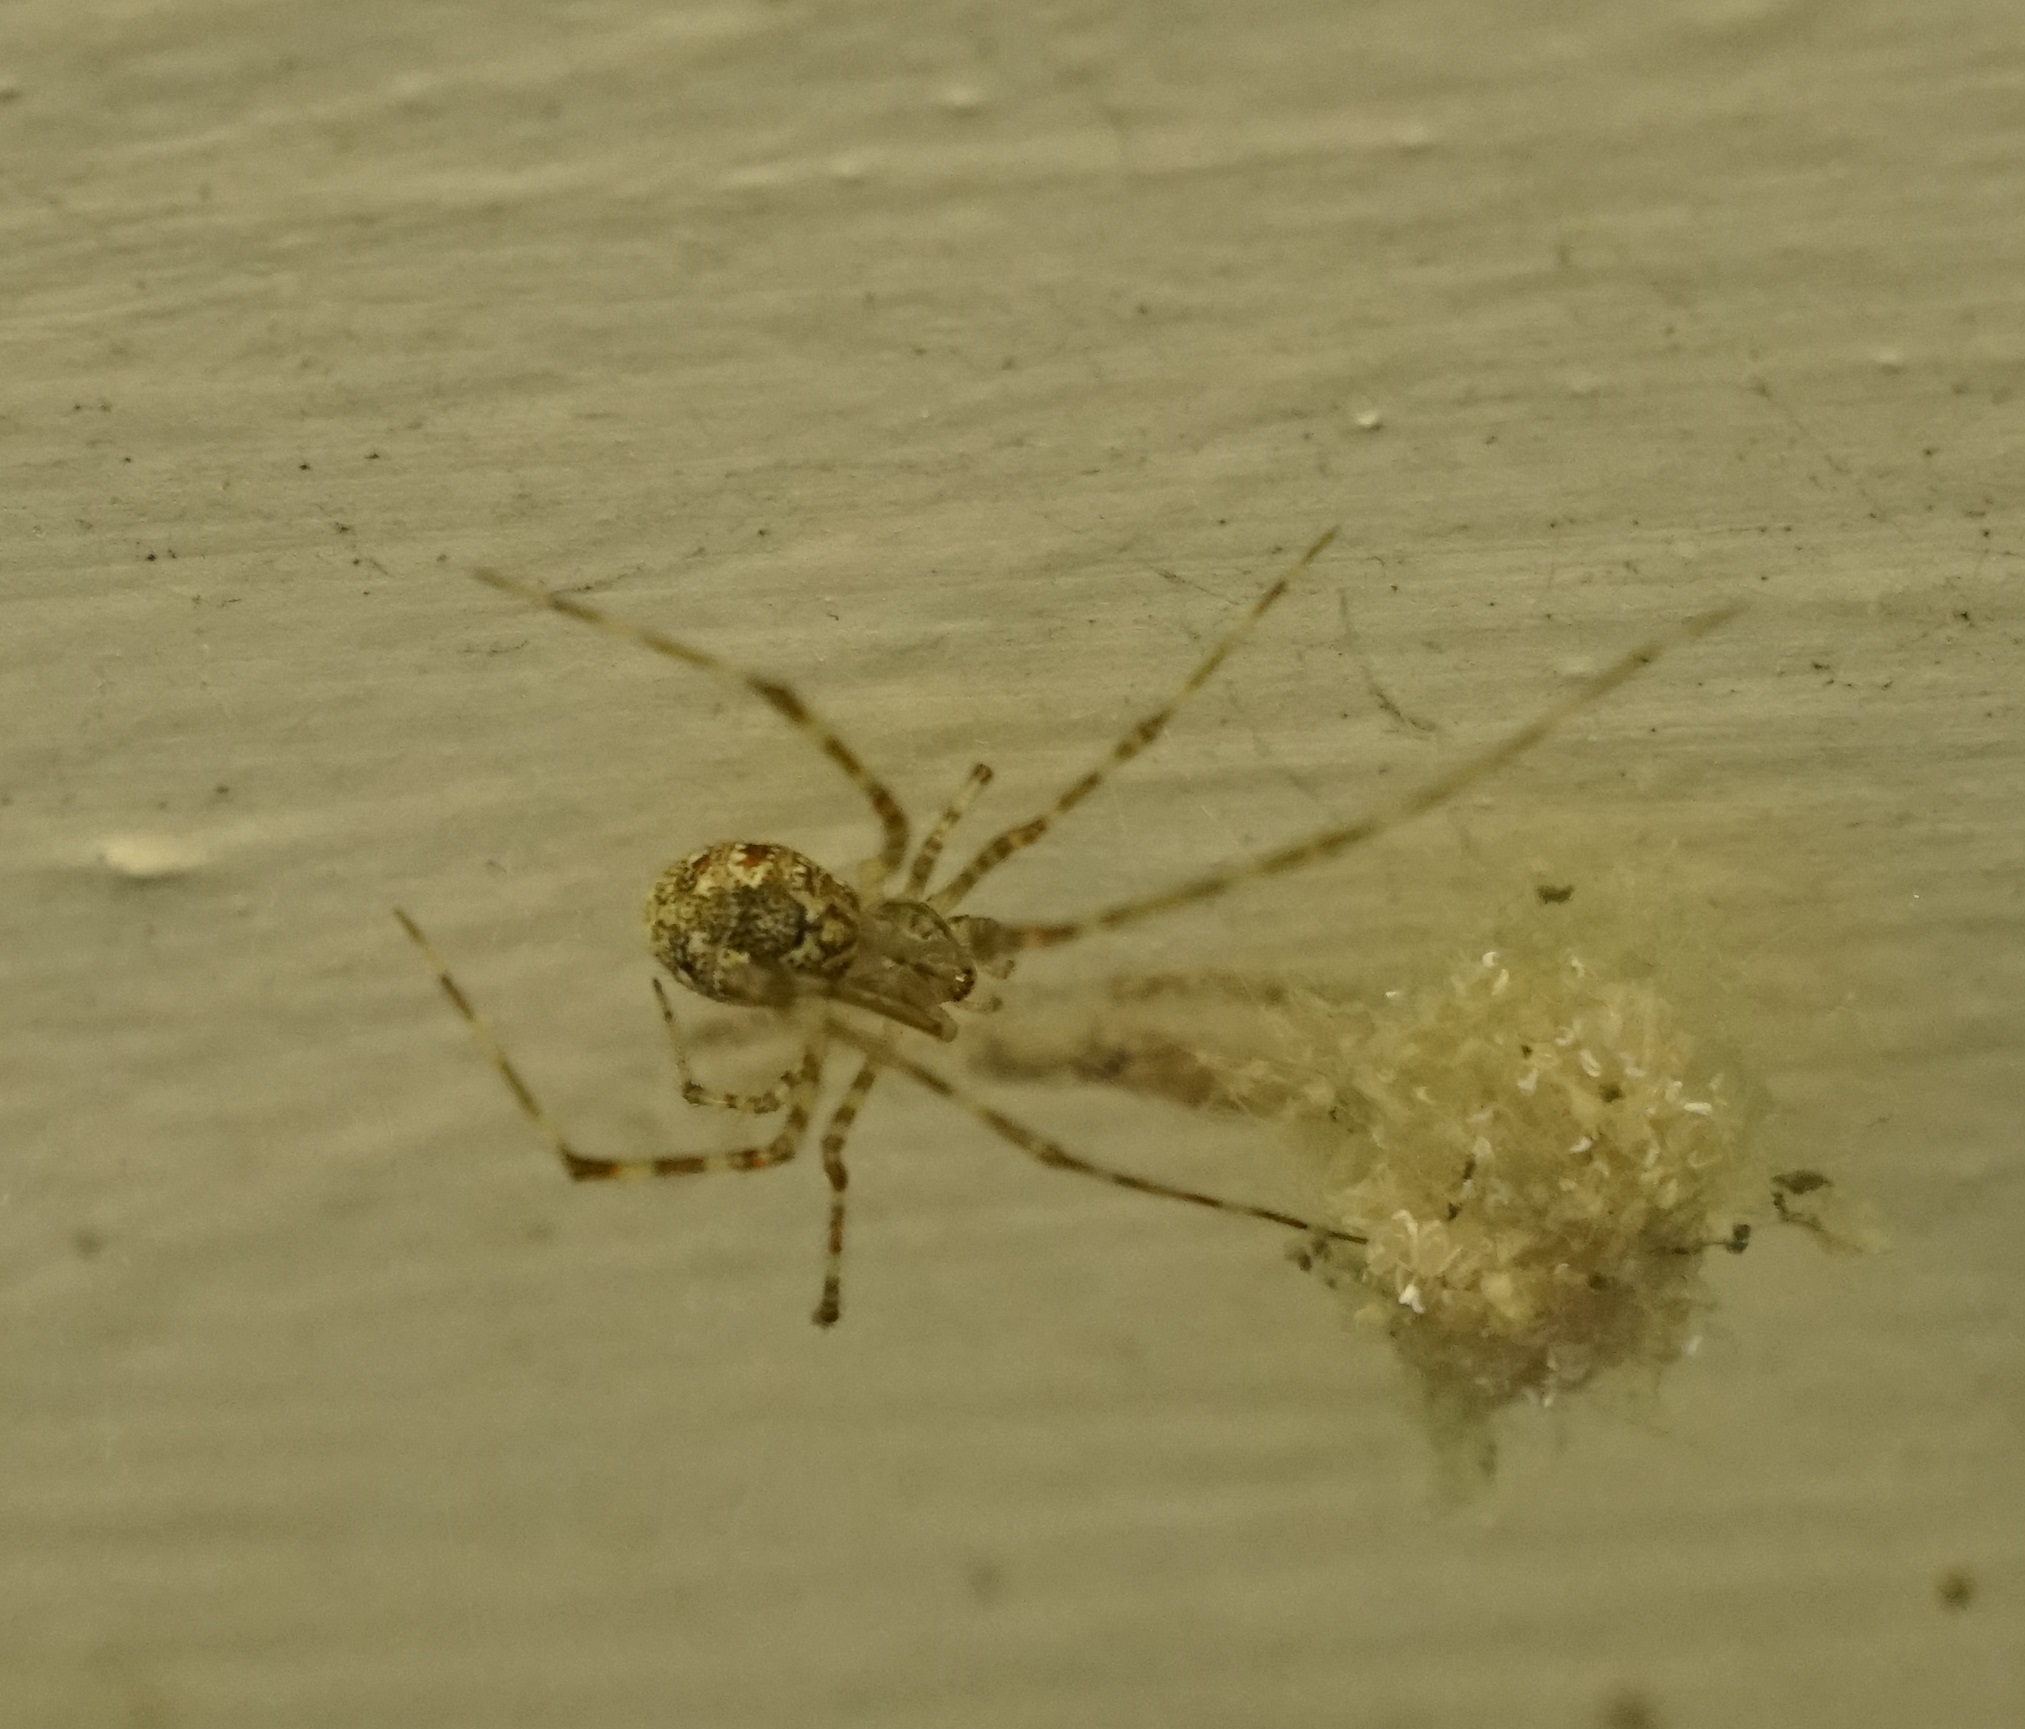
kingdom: Animalia
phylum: Arthropoda
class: Arachnida
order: Araneae
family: Theridiidae
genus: Cryptachaea
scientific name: Cryptachaea gigantipes
